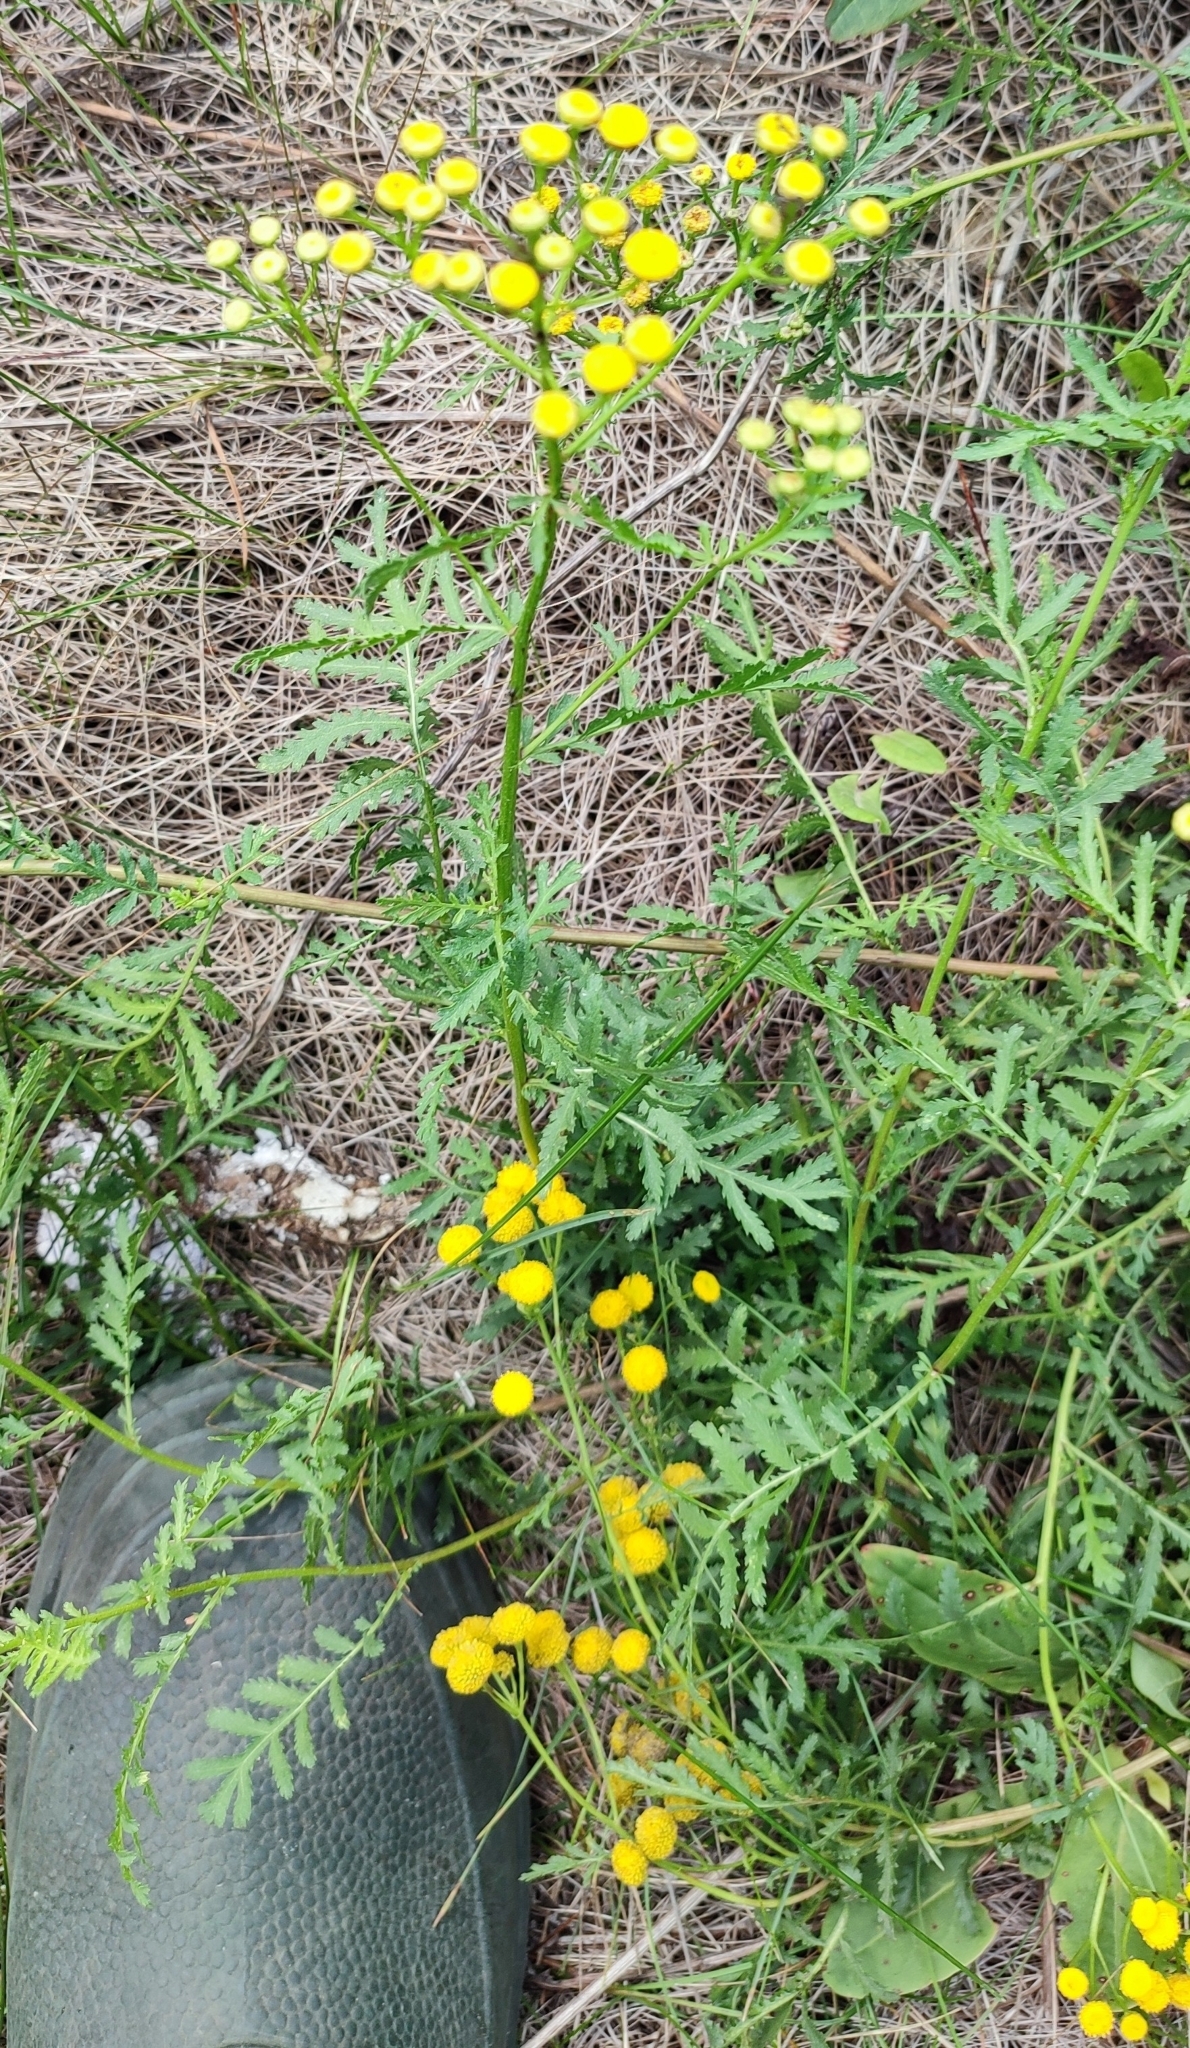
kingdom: Plantae
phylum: Tracheophyta
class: Magnoliopsida
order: Asterales
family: Asteraceae
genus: Tanacetum
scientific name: Tanacetum vulgare
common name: Common tansy
